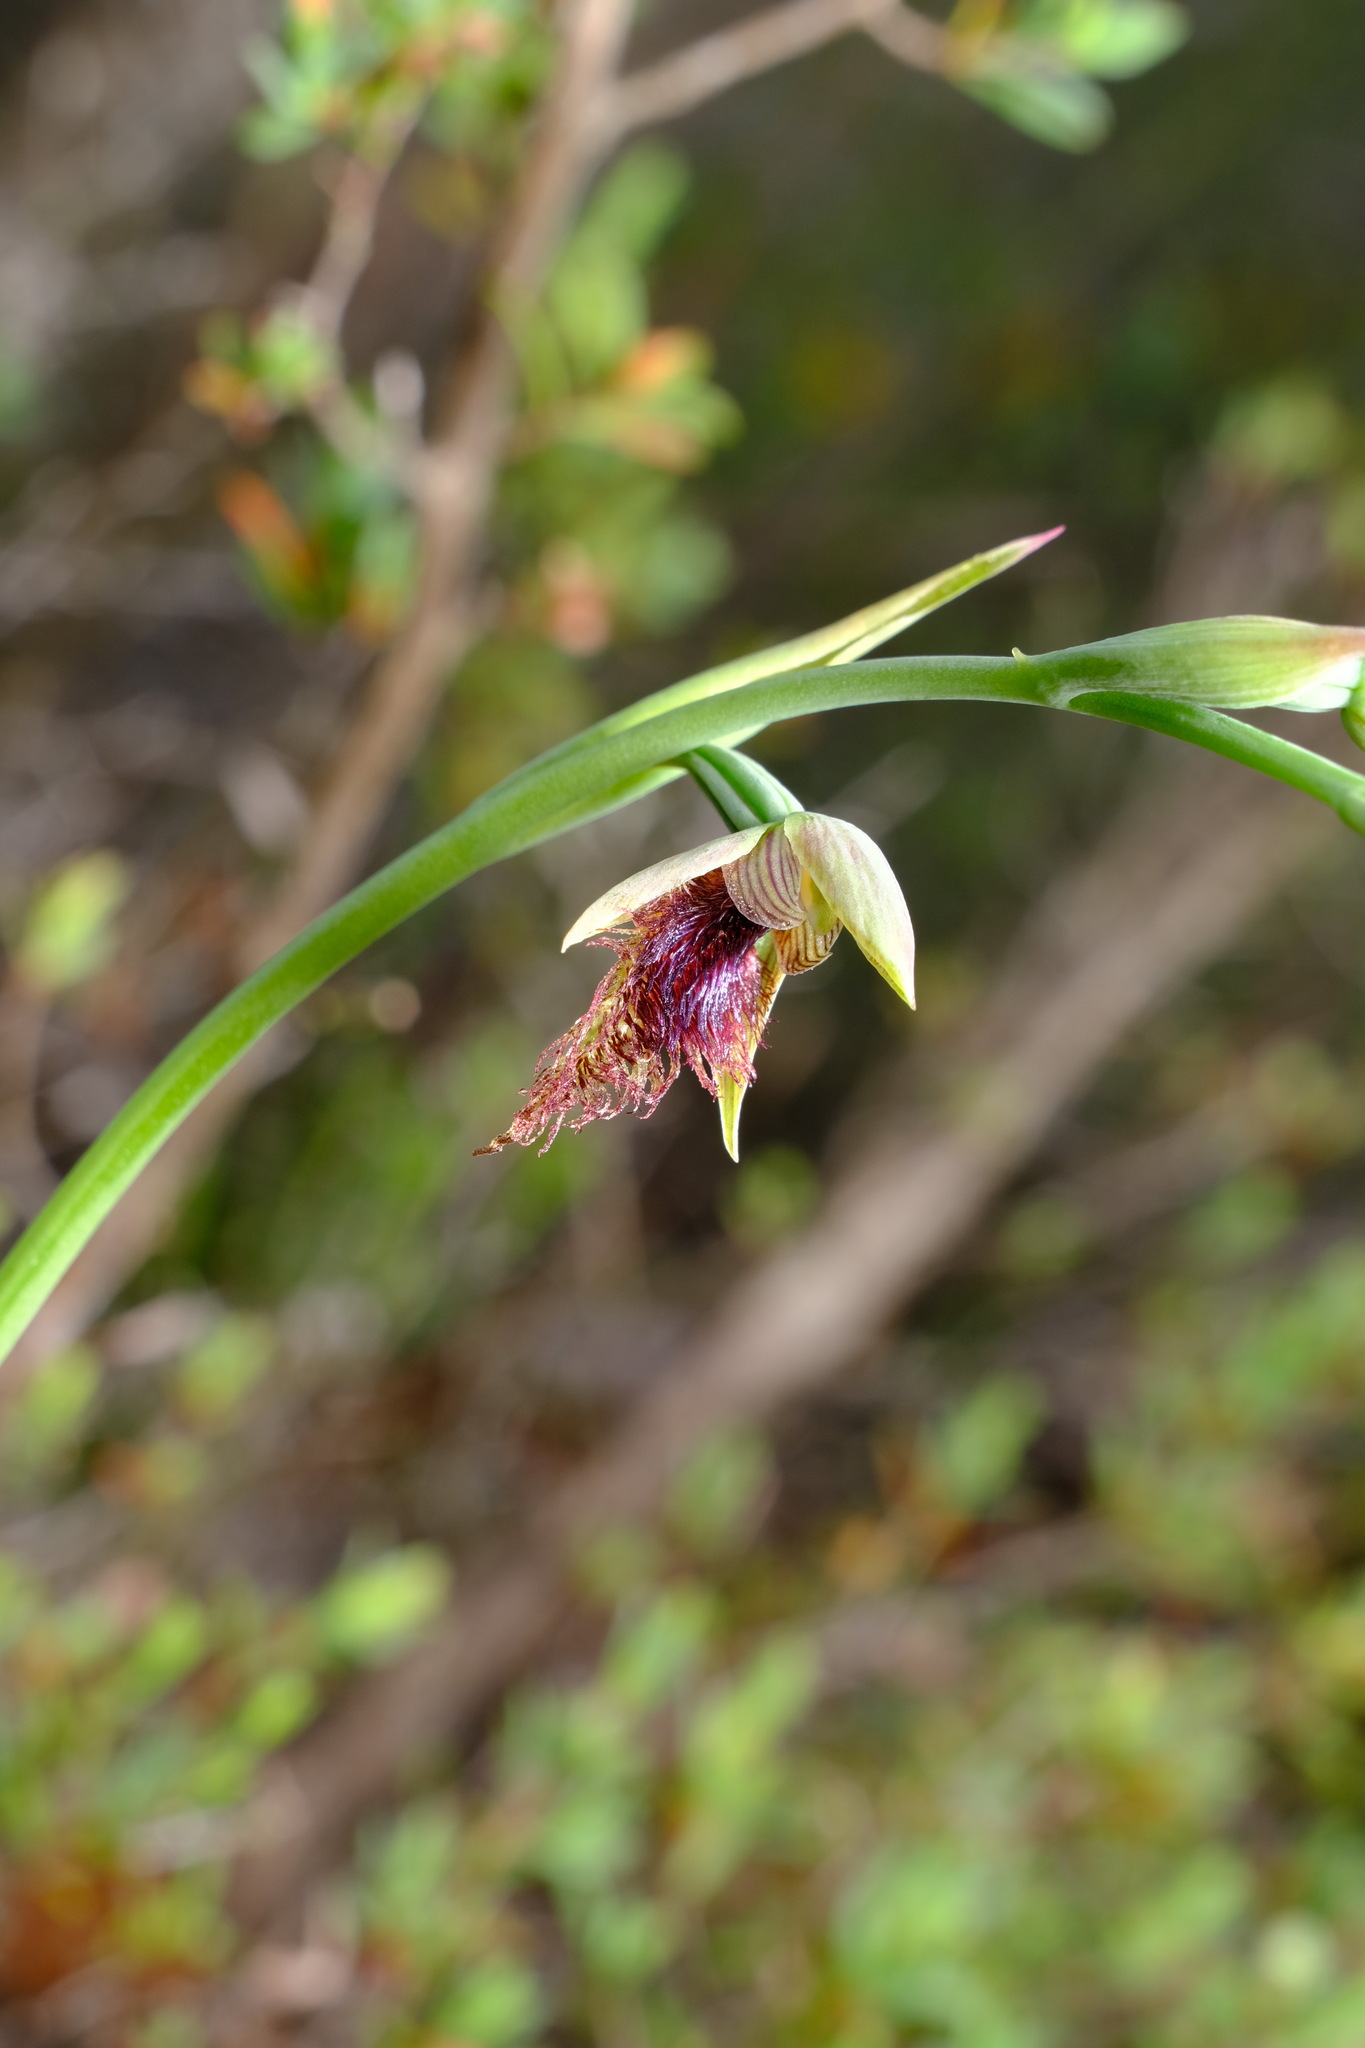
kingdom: Plantae
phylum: Tracheophyta
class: Liliopsida
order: Asparagales
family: Orchidaceae
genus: Calochilus
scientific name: Calochilus robertsonii
